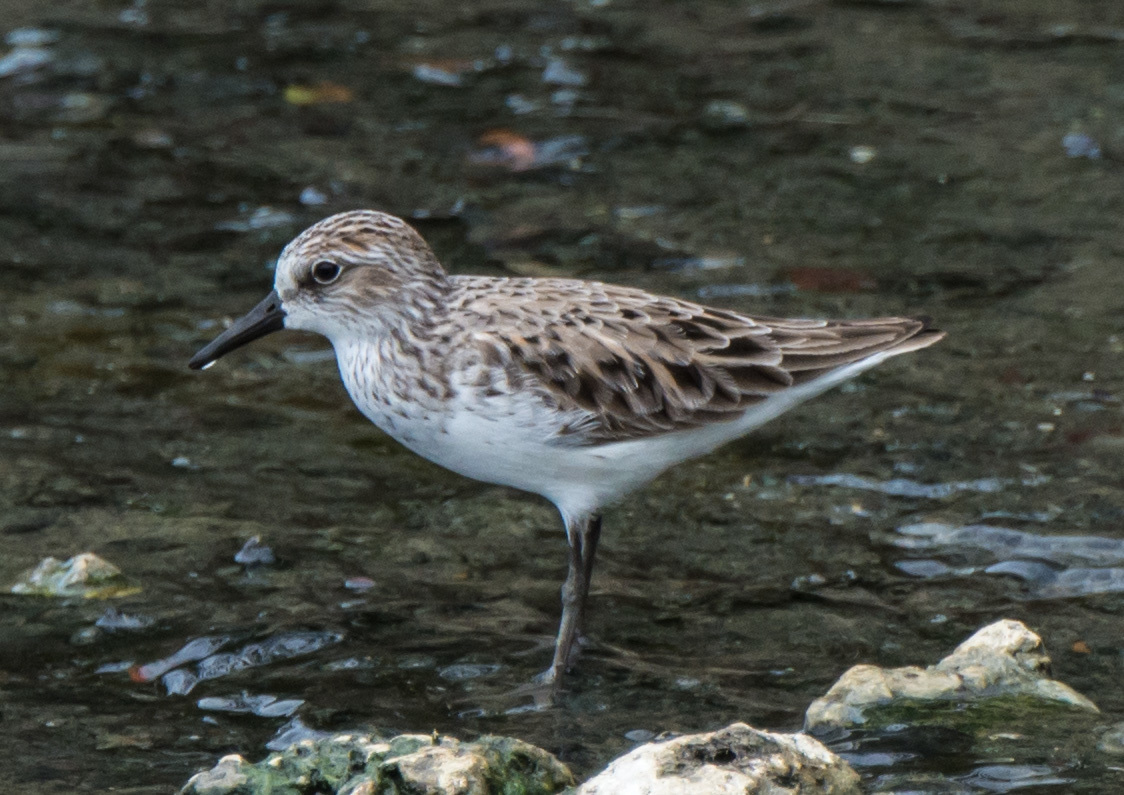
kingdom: Animalia
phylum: Chordata
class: Aves
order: Charadriiformes
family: Scolopacidae
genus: Calidris
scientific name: Calidris pusilla
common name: Semipalmated sandpiper
